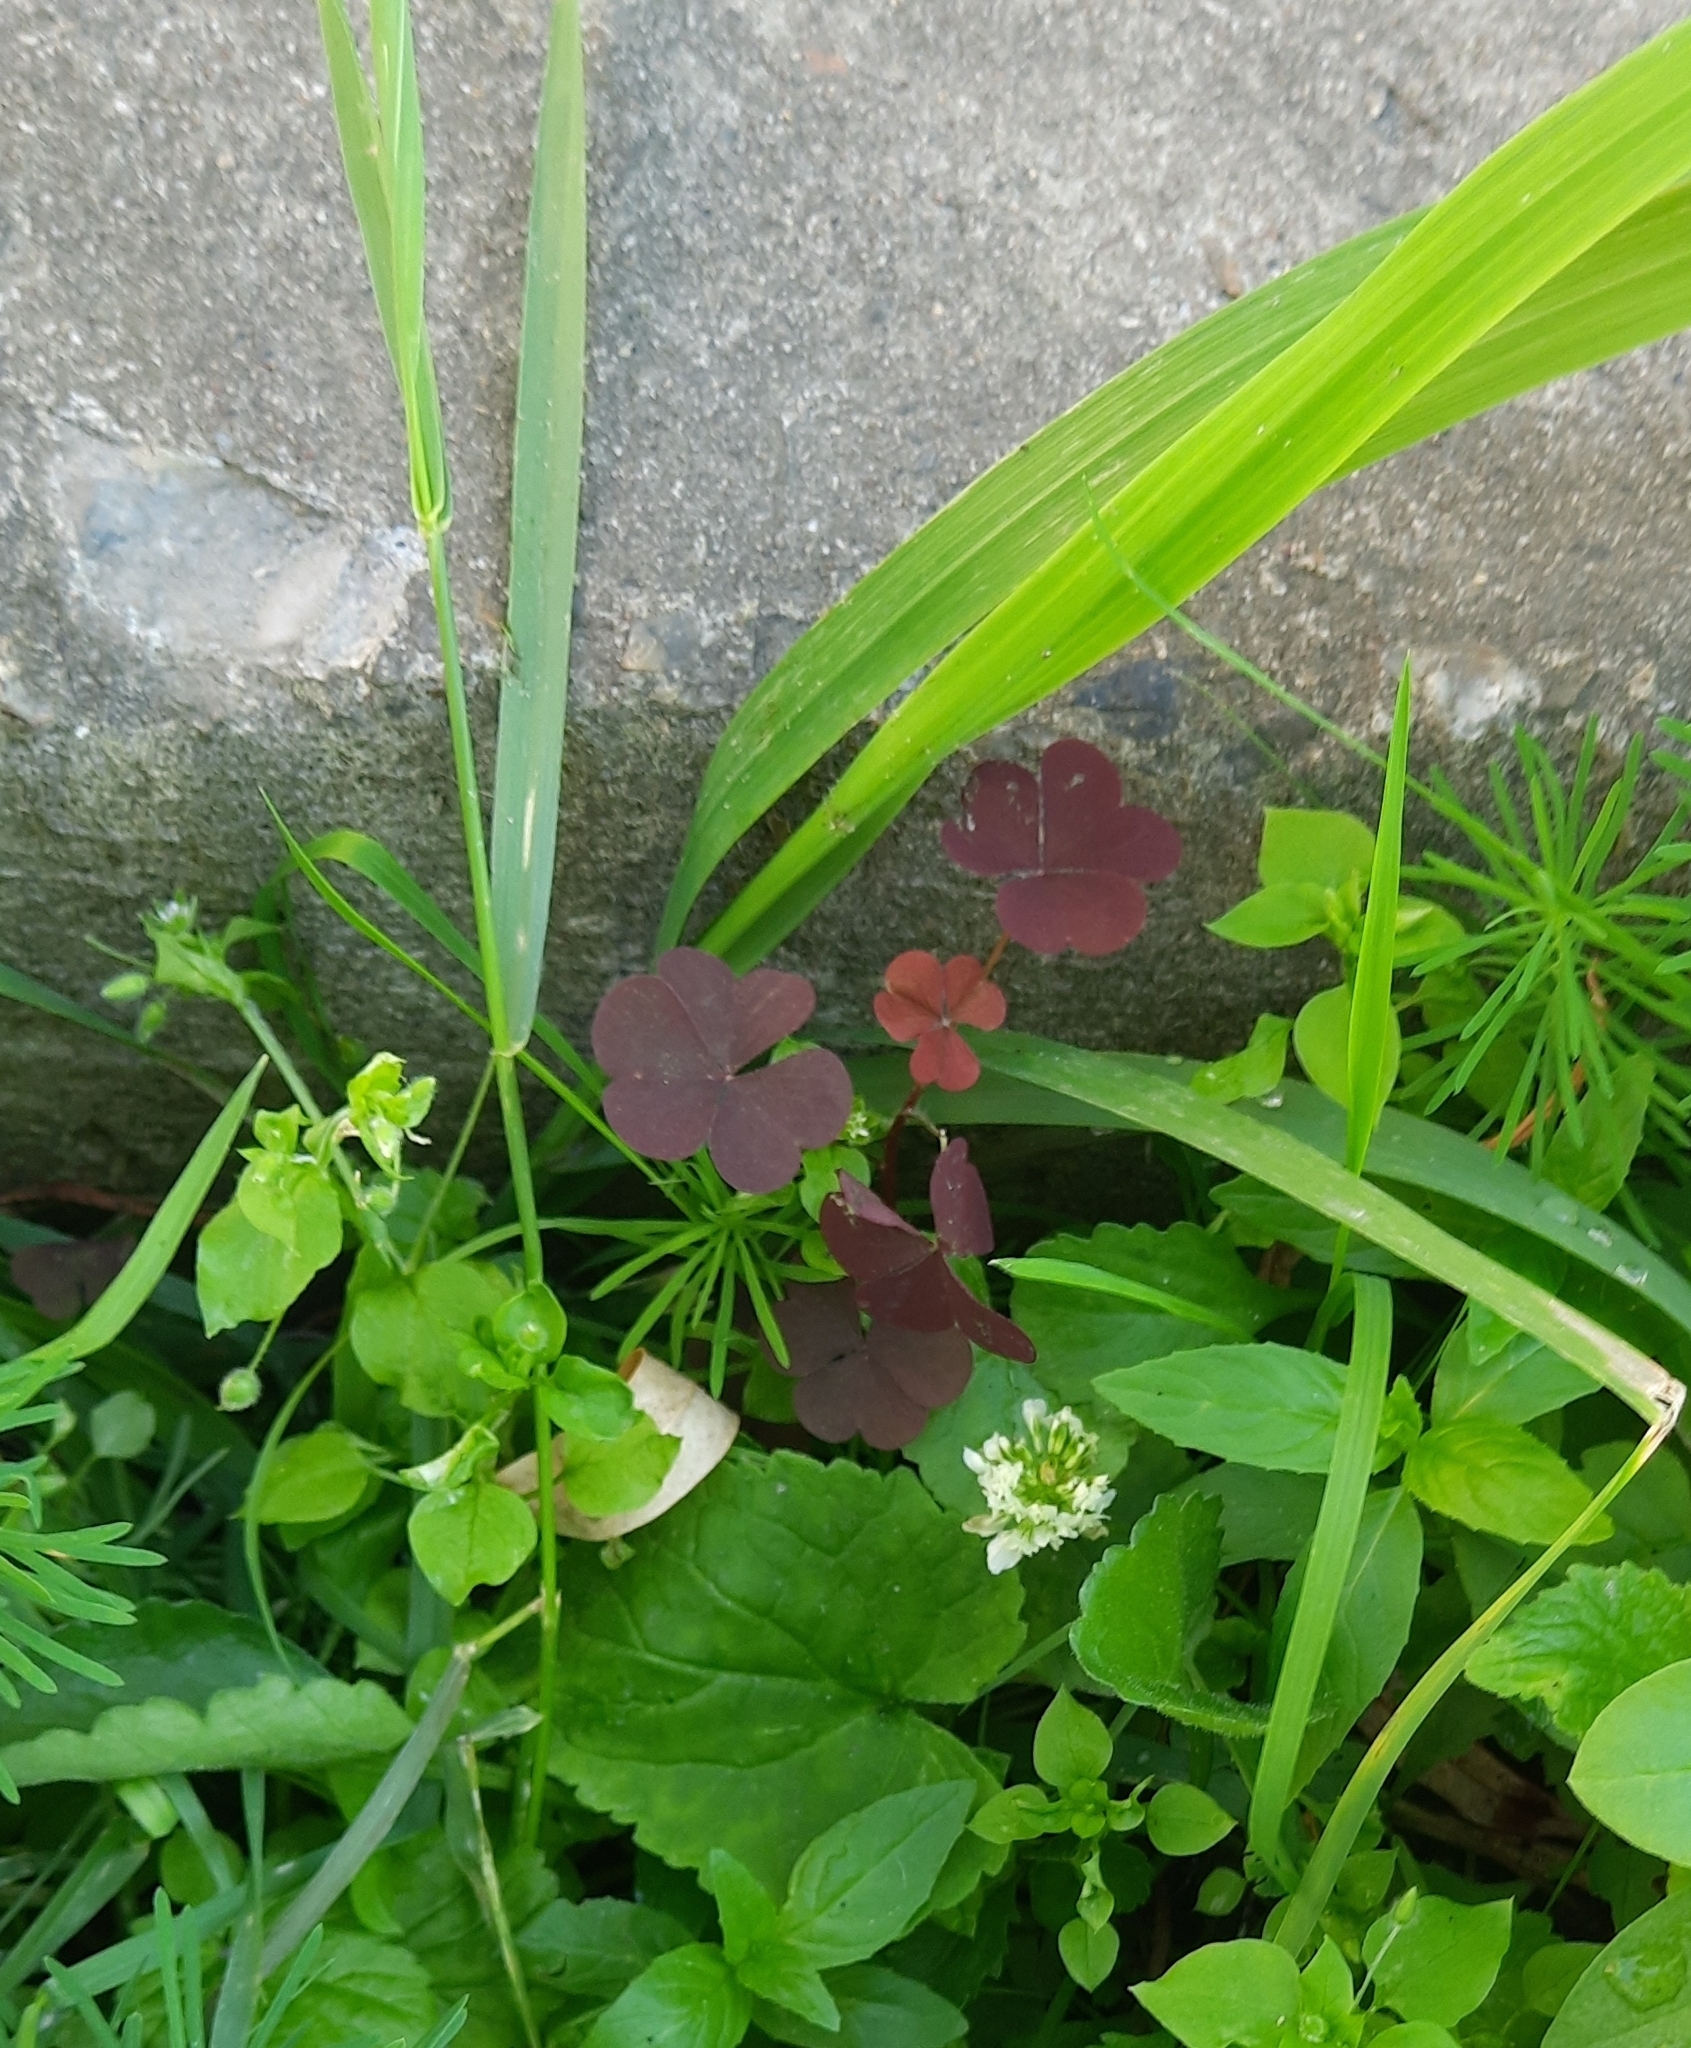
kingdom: Plantae
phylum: Tracheophyta
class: Magnoliopsida
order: Oxalidales
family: Oxalidaceae
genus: Oxalis
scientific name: Oxalis stricta
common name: Upright yellow-sorrel
